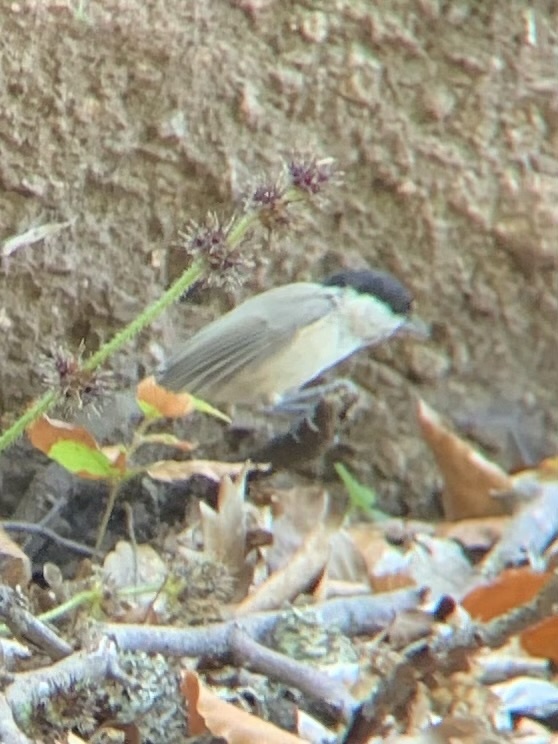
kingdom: Animalia
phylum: Chordata
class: Aves
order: Passeriformes
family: Paridae
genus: Poecile
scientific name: Poecile palustris
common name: Marsh tit
